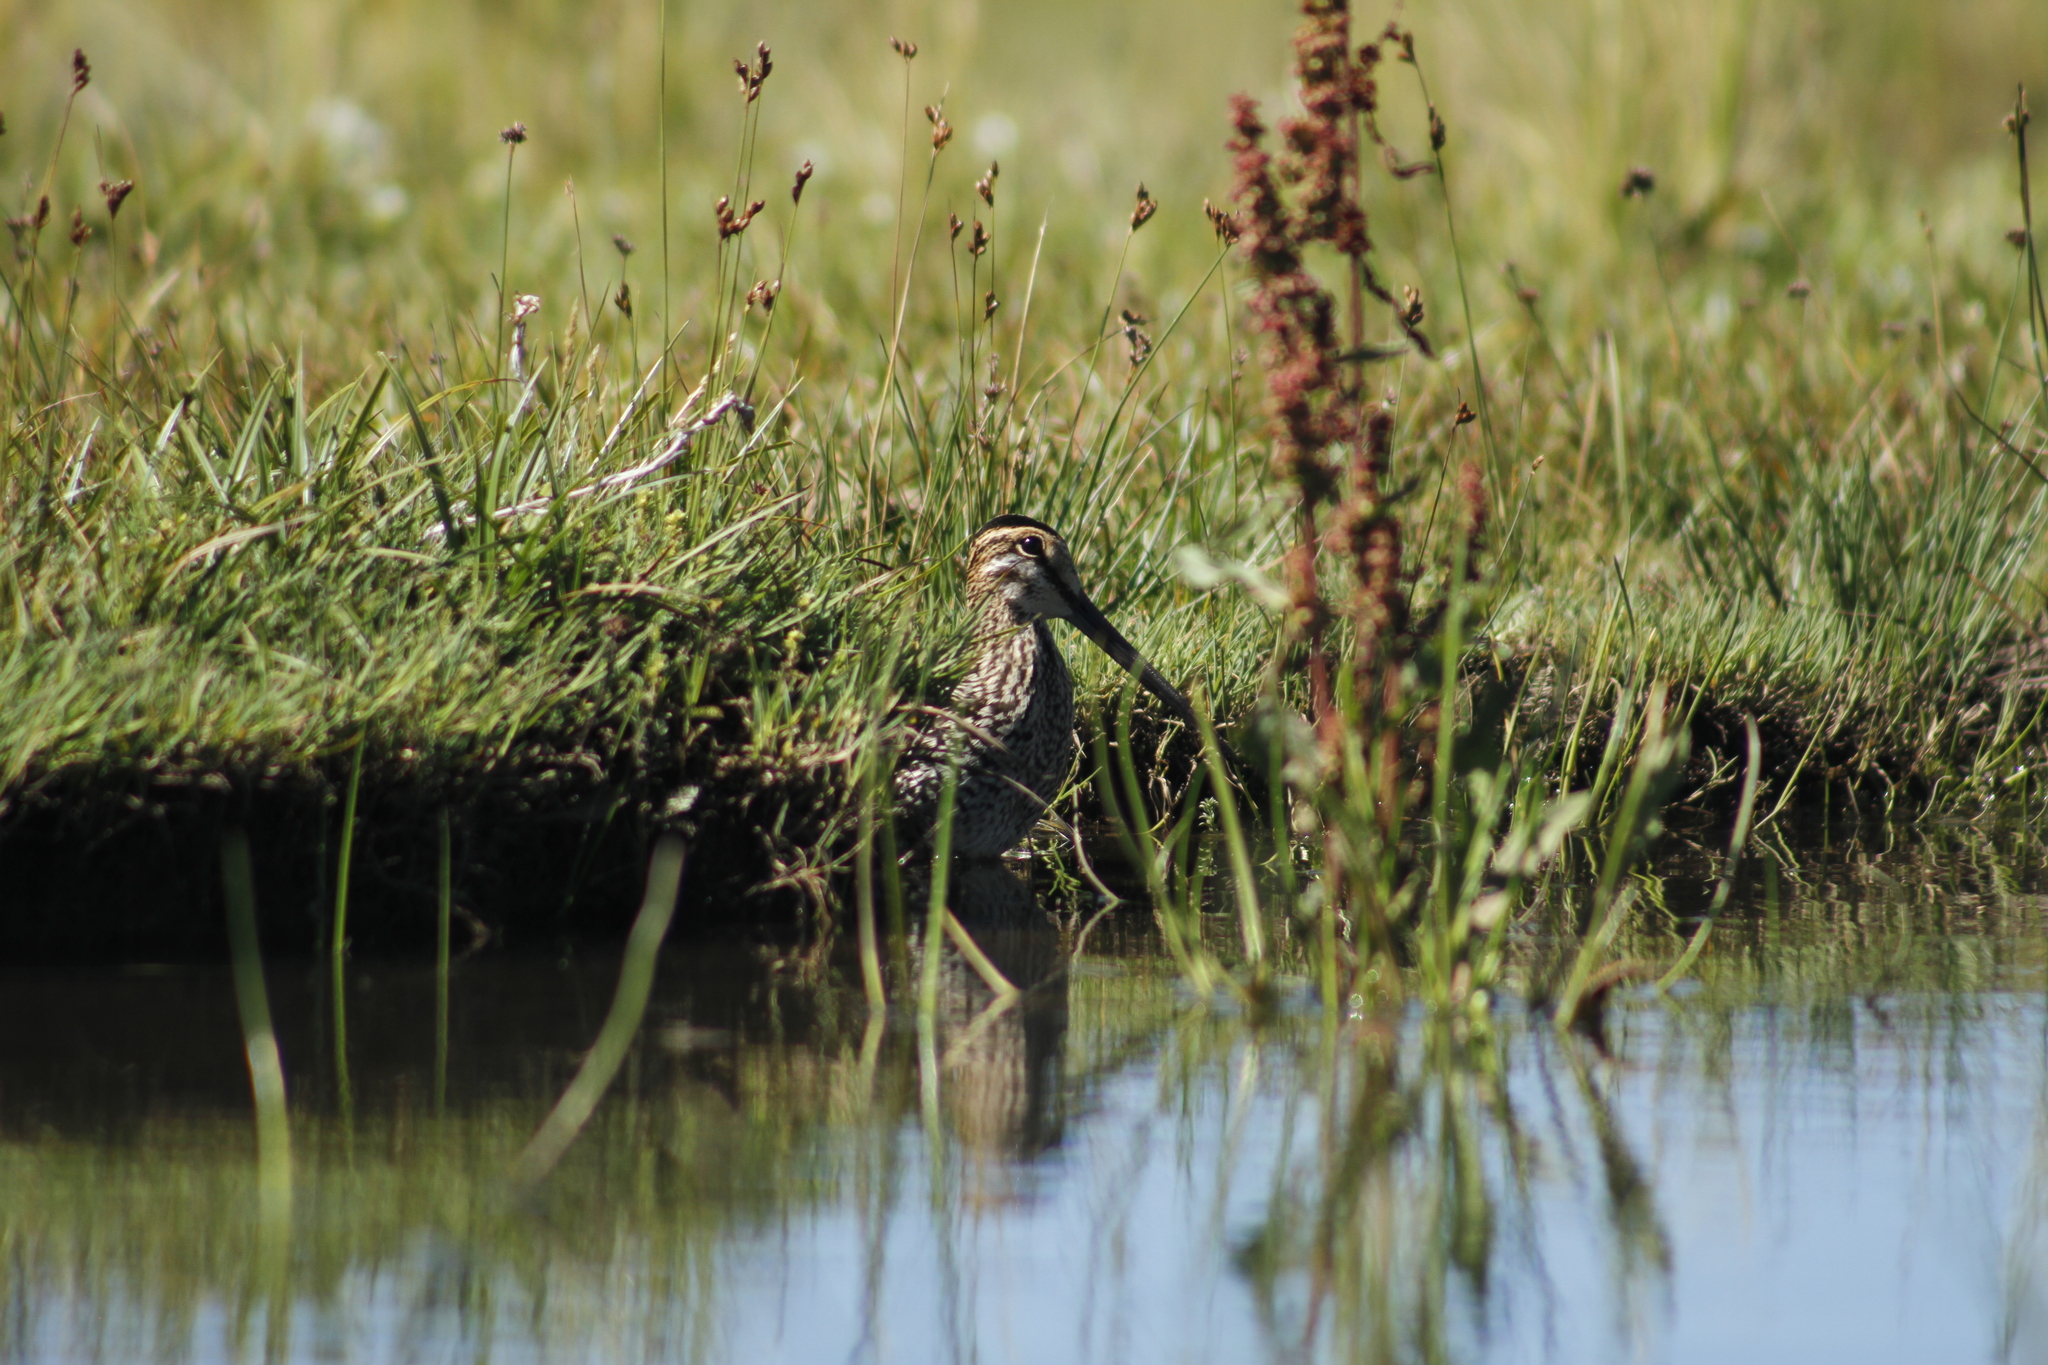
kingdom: Animalia
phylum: Chordata
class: Aves
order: Charadriiformes
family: Scolopacidae
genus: Gallinago
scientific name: Gallinago paraguaiae
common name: South american snipe
